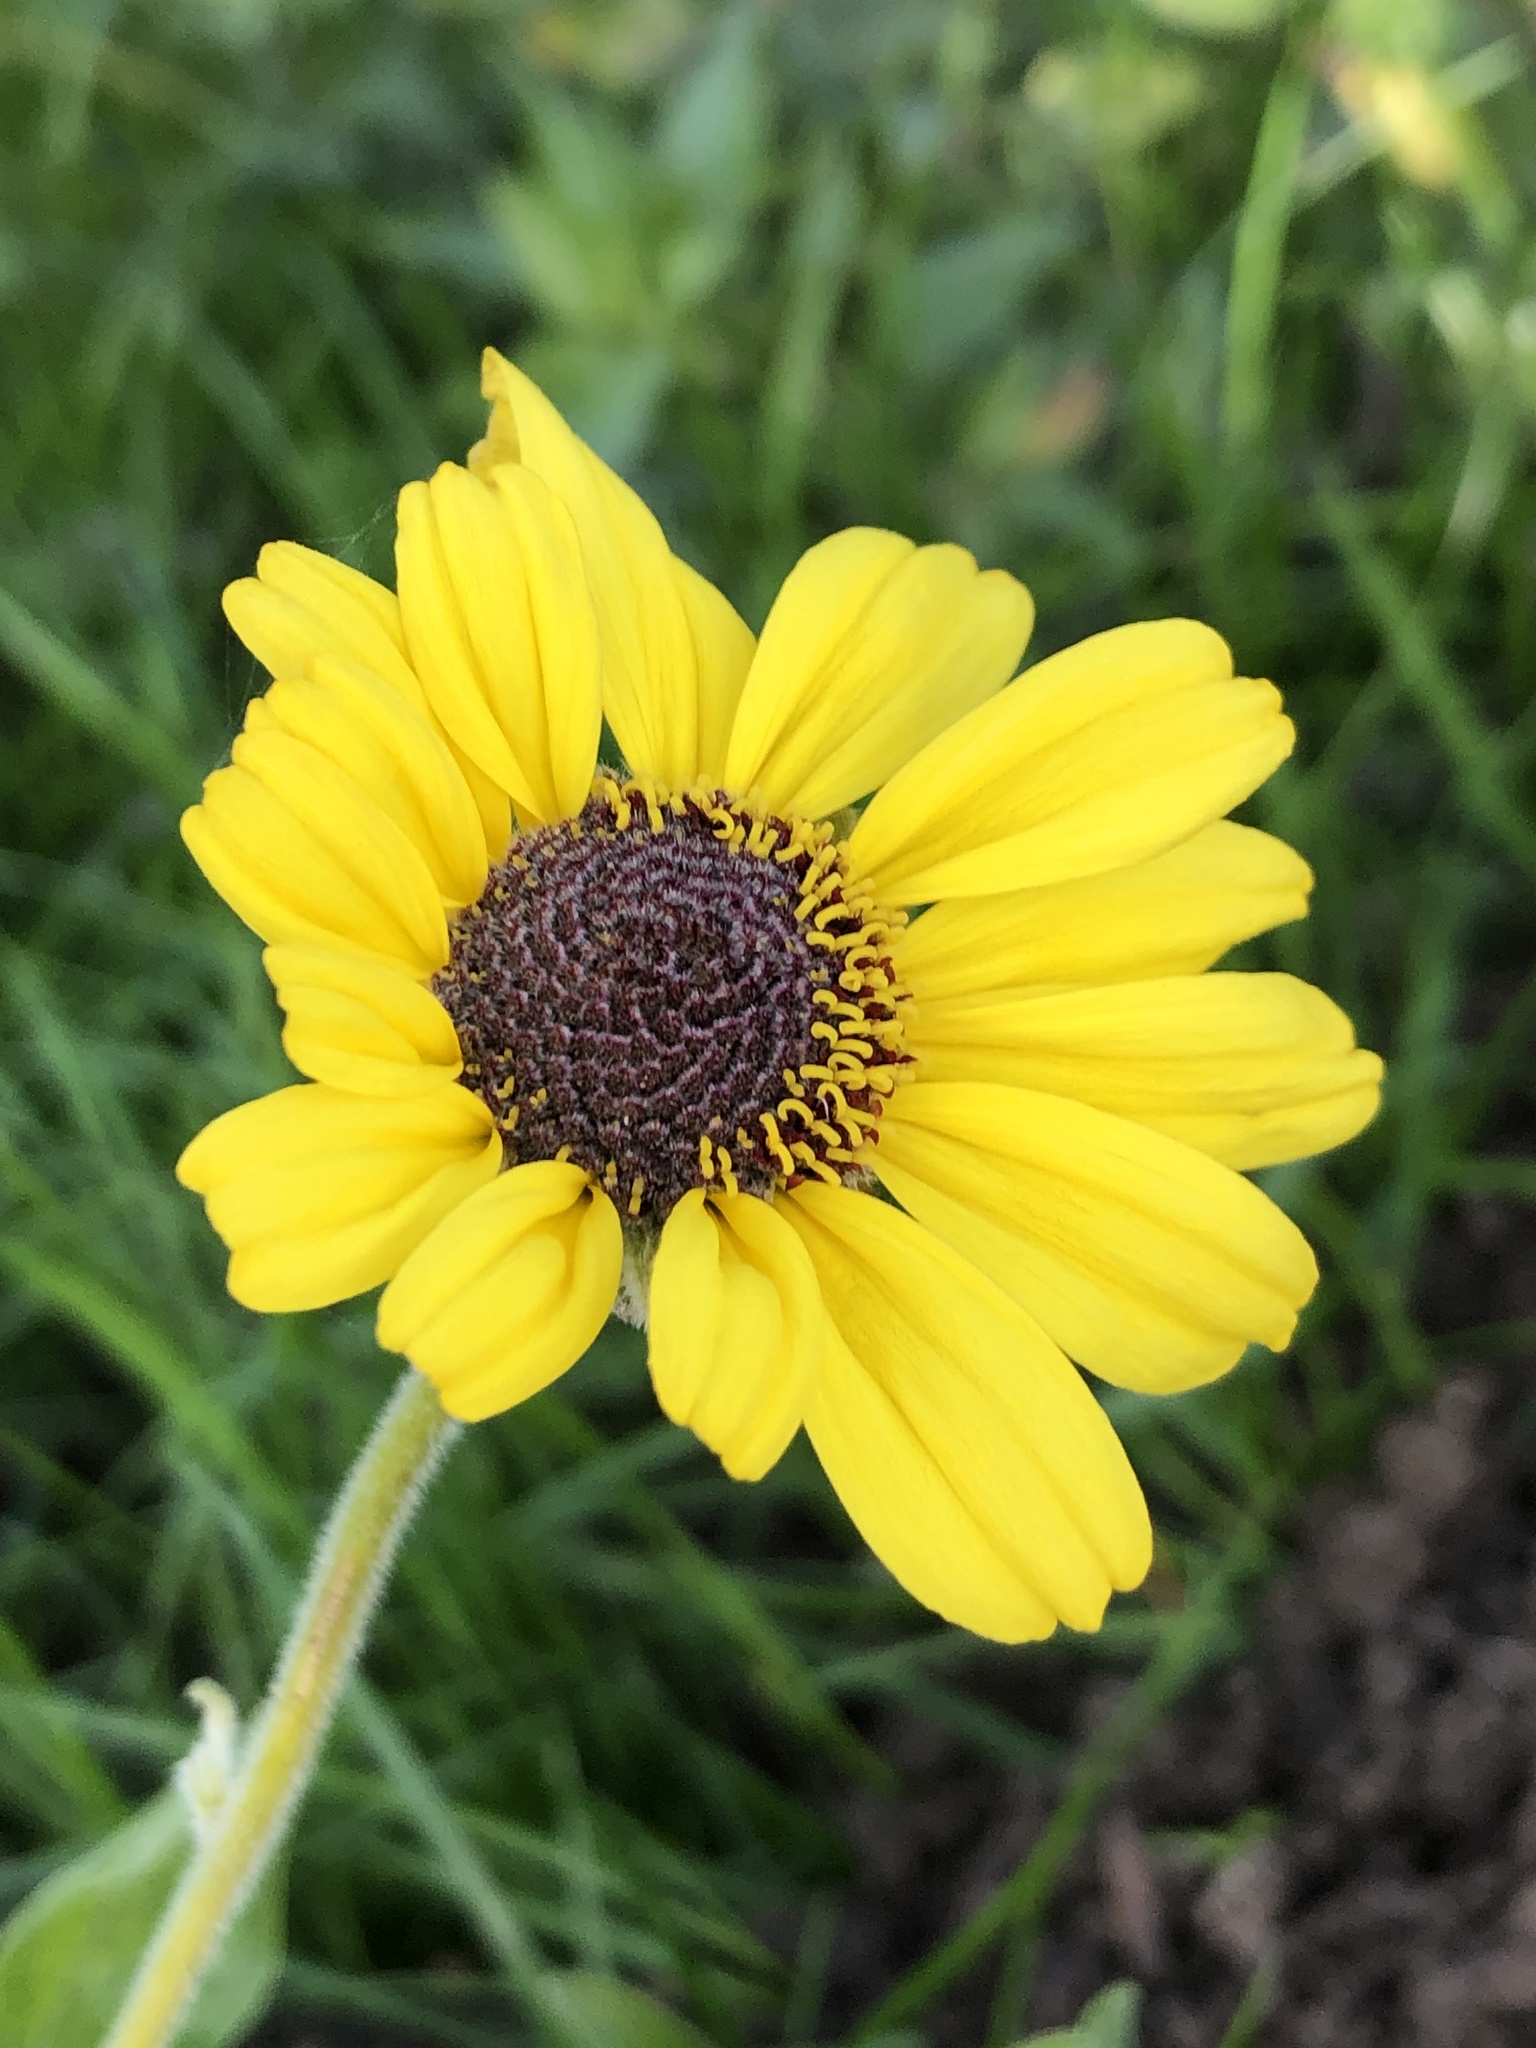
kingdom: Plantae
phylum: Tracheophyta
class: Magnoliopsida
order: Asterales
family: Asteraceae
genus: Encelia
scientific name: Encelia californica
